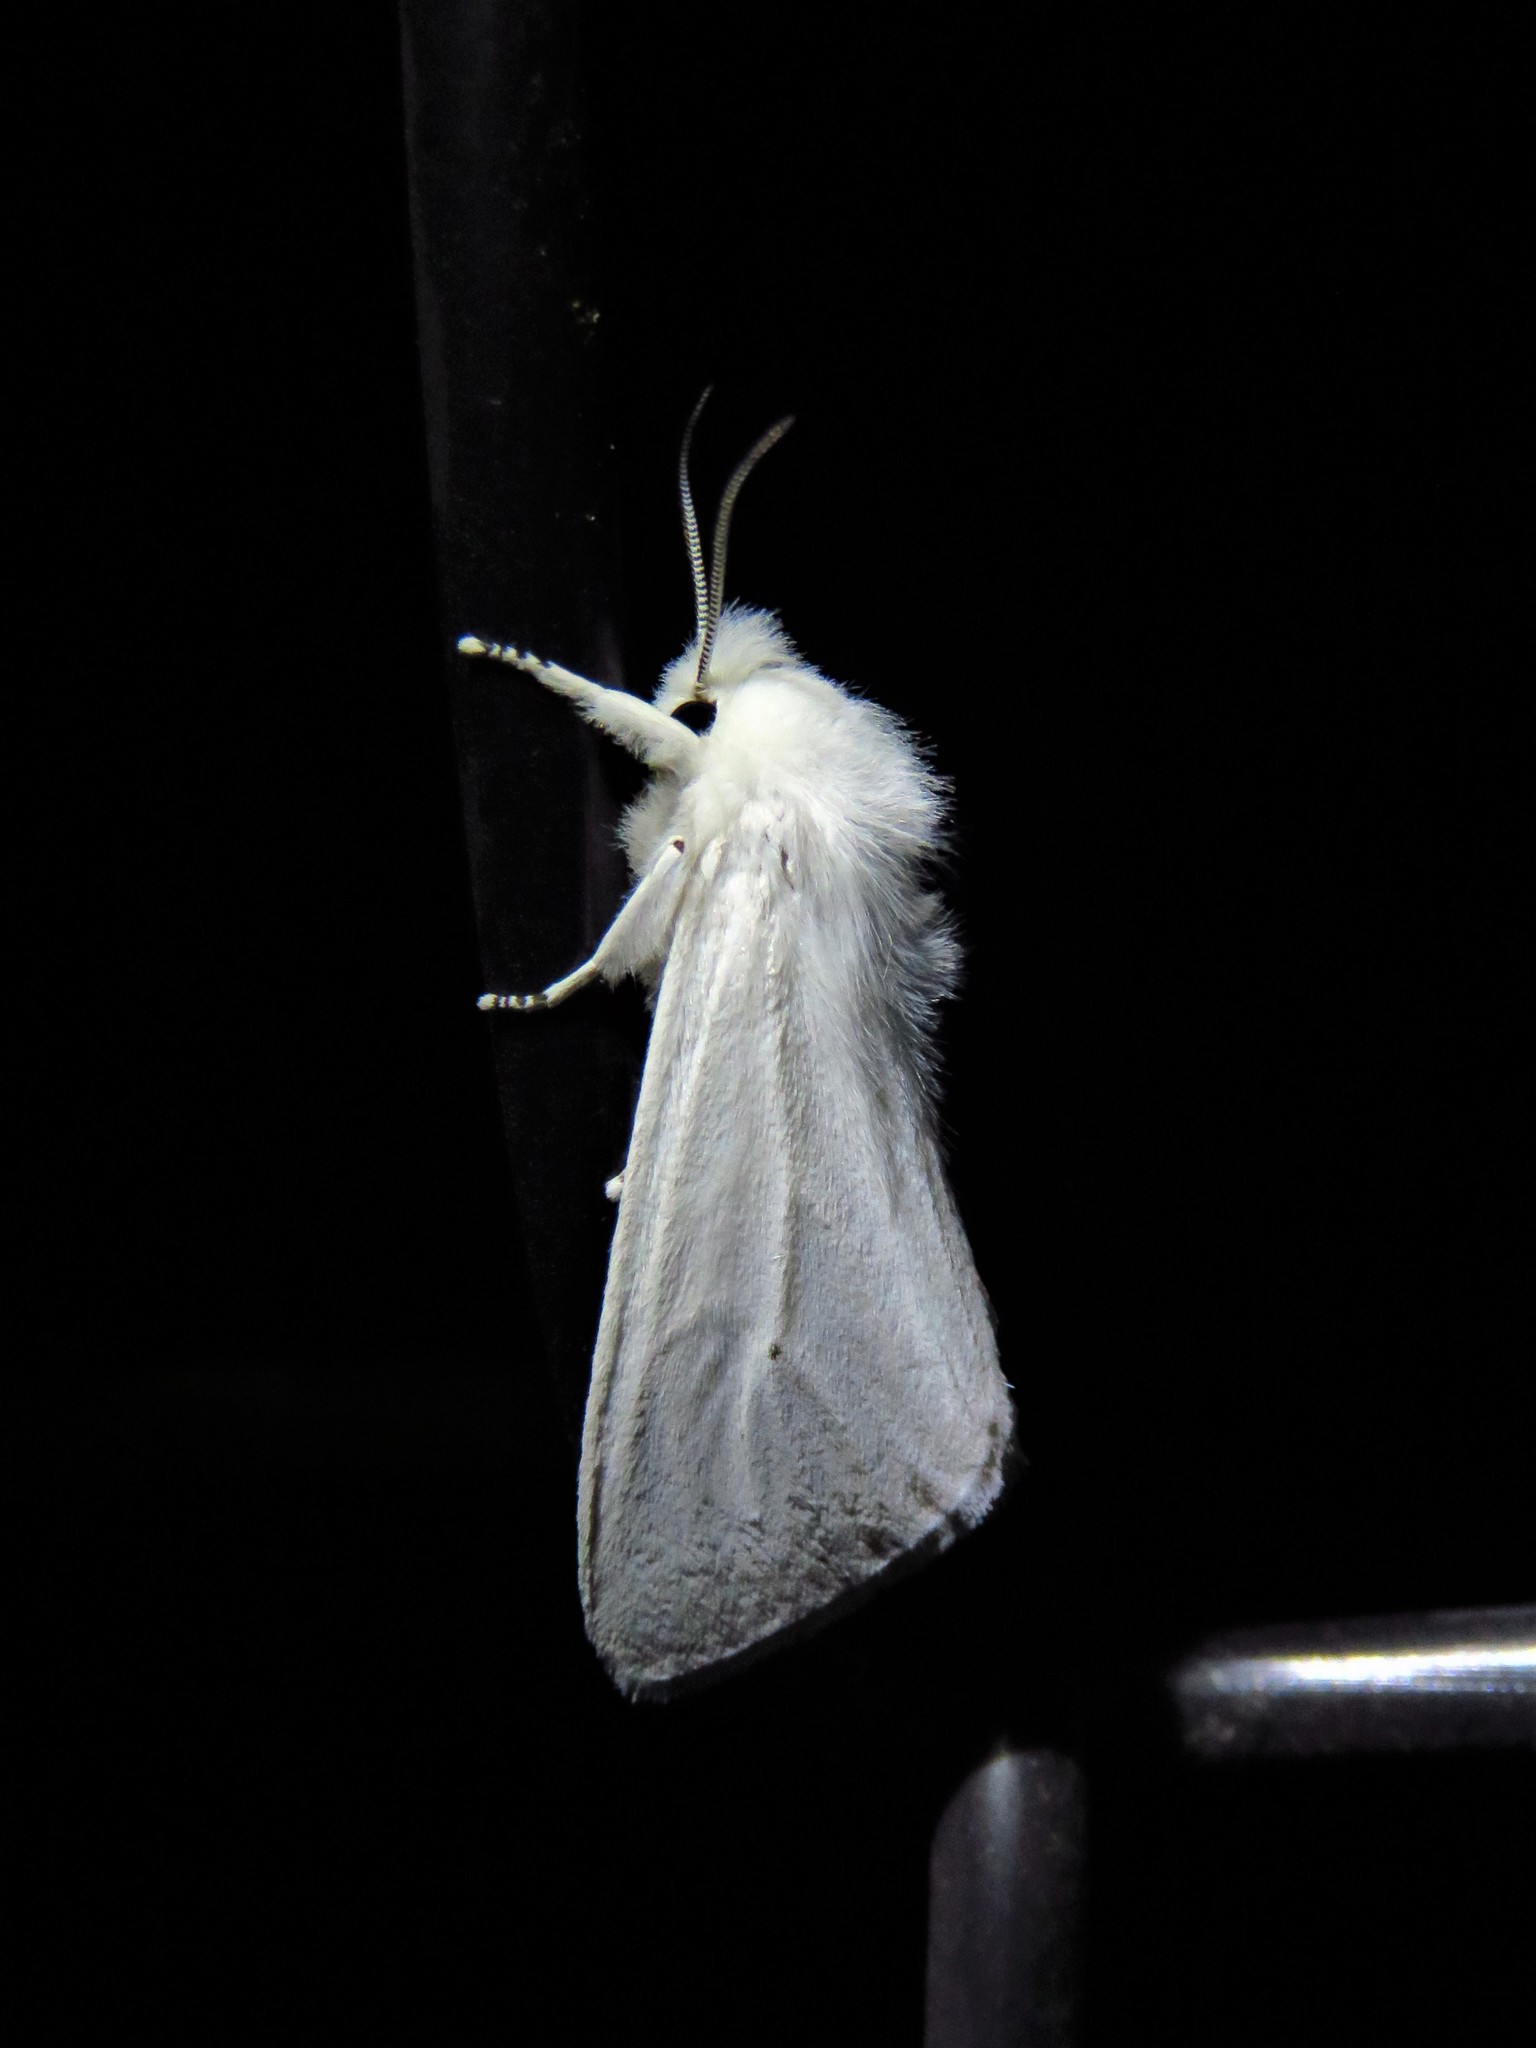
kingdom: Animalia
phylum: Arthropoda
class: Insecta
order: Lepidoptera
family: Erebidae
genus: Spilosoma
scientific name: Spilosoma virginica
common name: Virginia tiger moth
